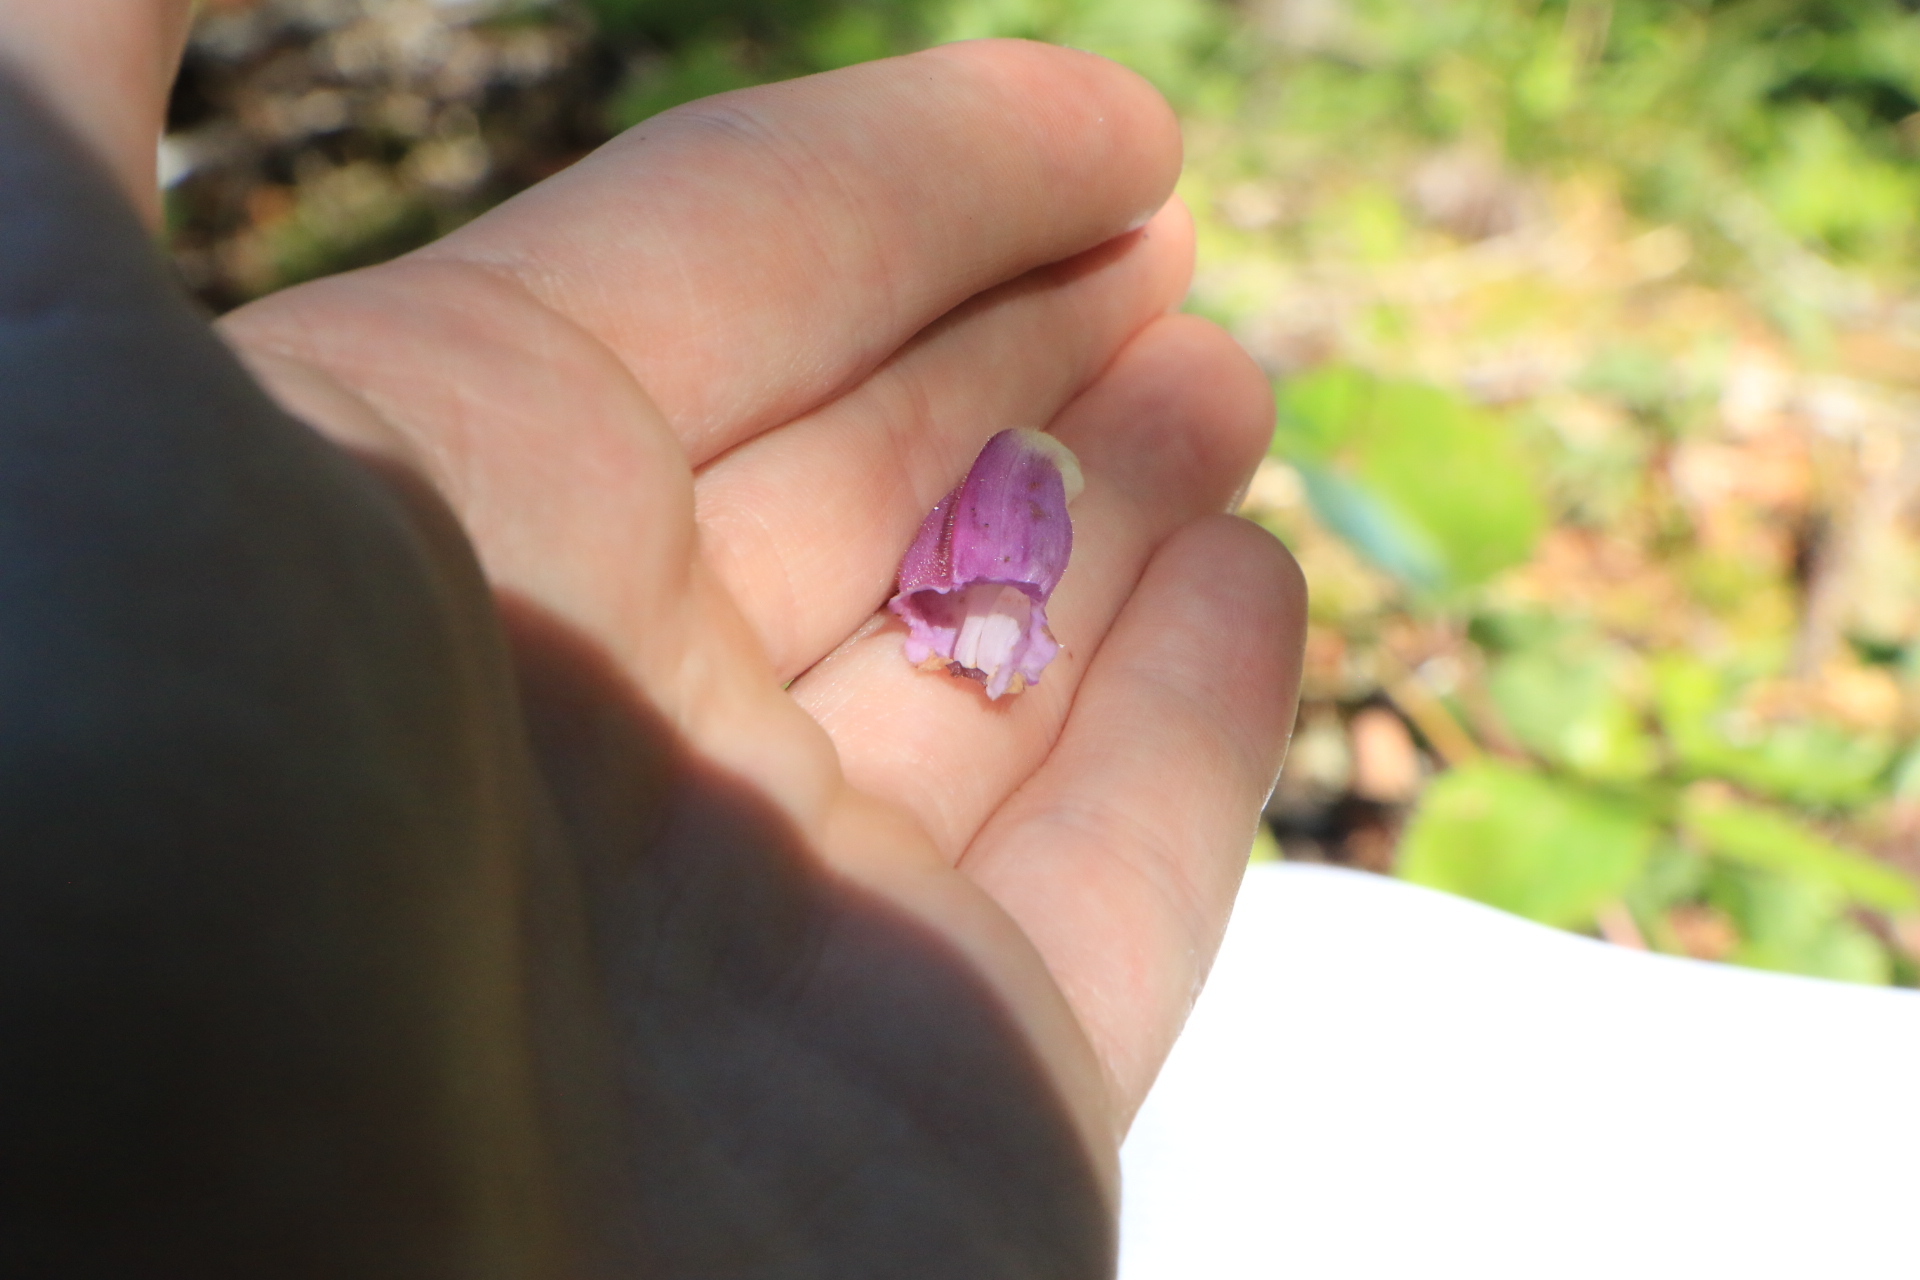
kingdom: Plantae
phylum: Tracheophyta
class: Magnoliopsida
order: Lamiales
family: Plantaginaceae
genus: Nothochelone
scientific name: Nothochelone nemorosa
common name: Woodland beardtongue
